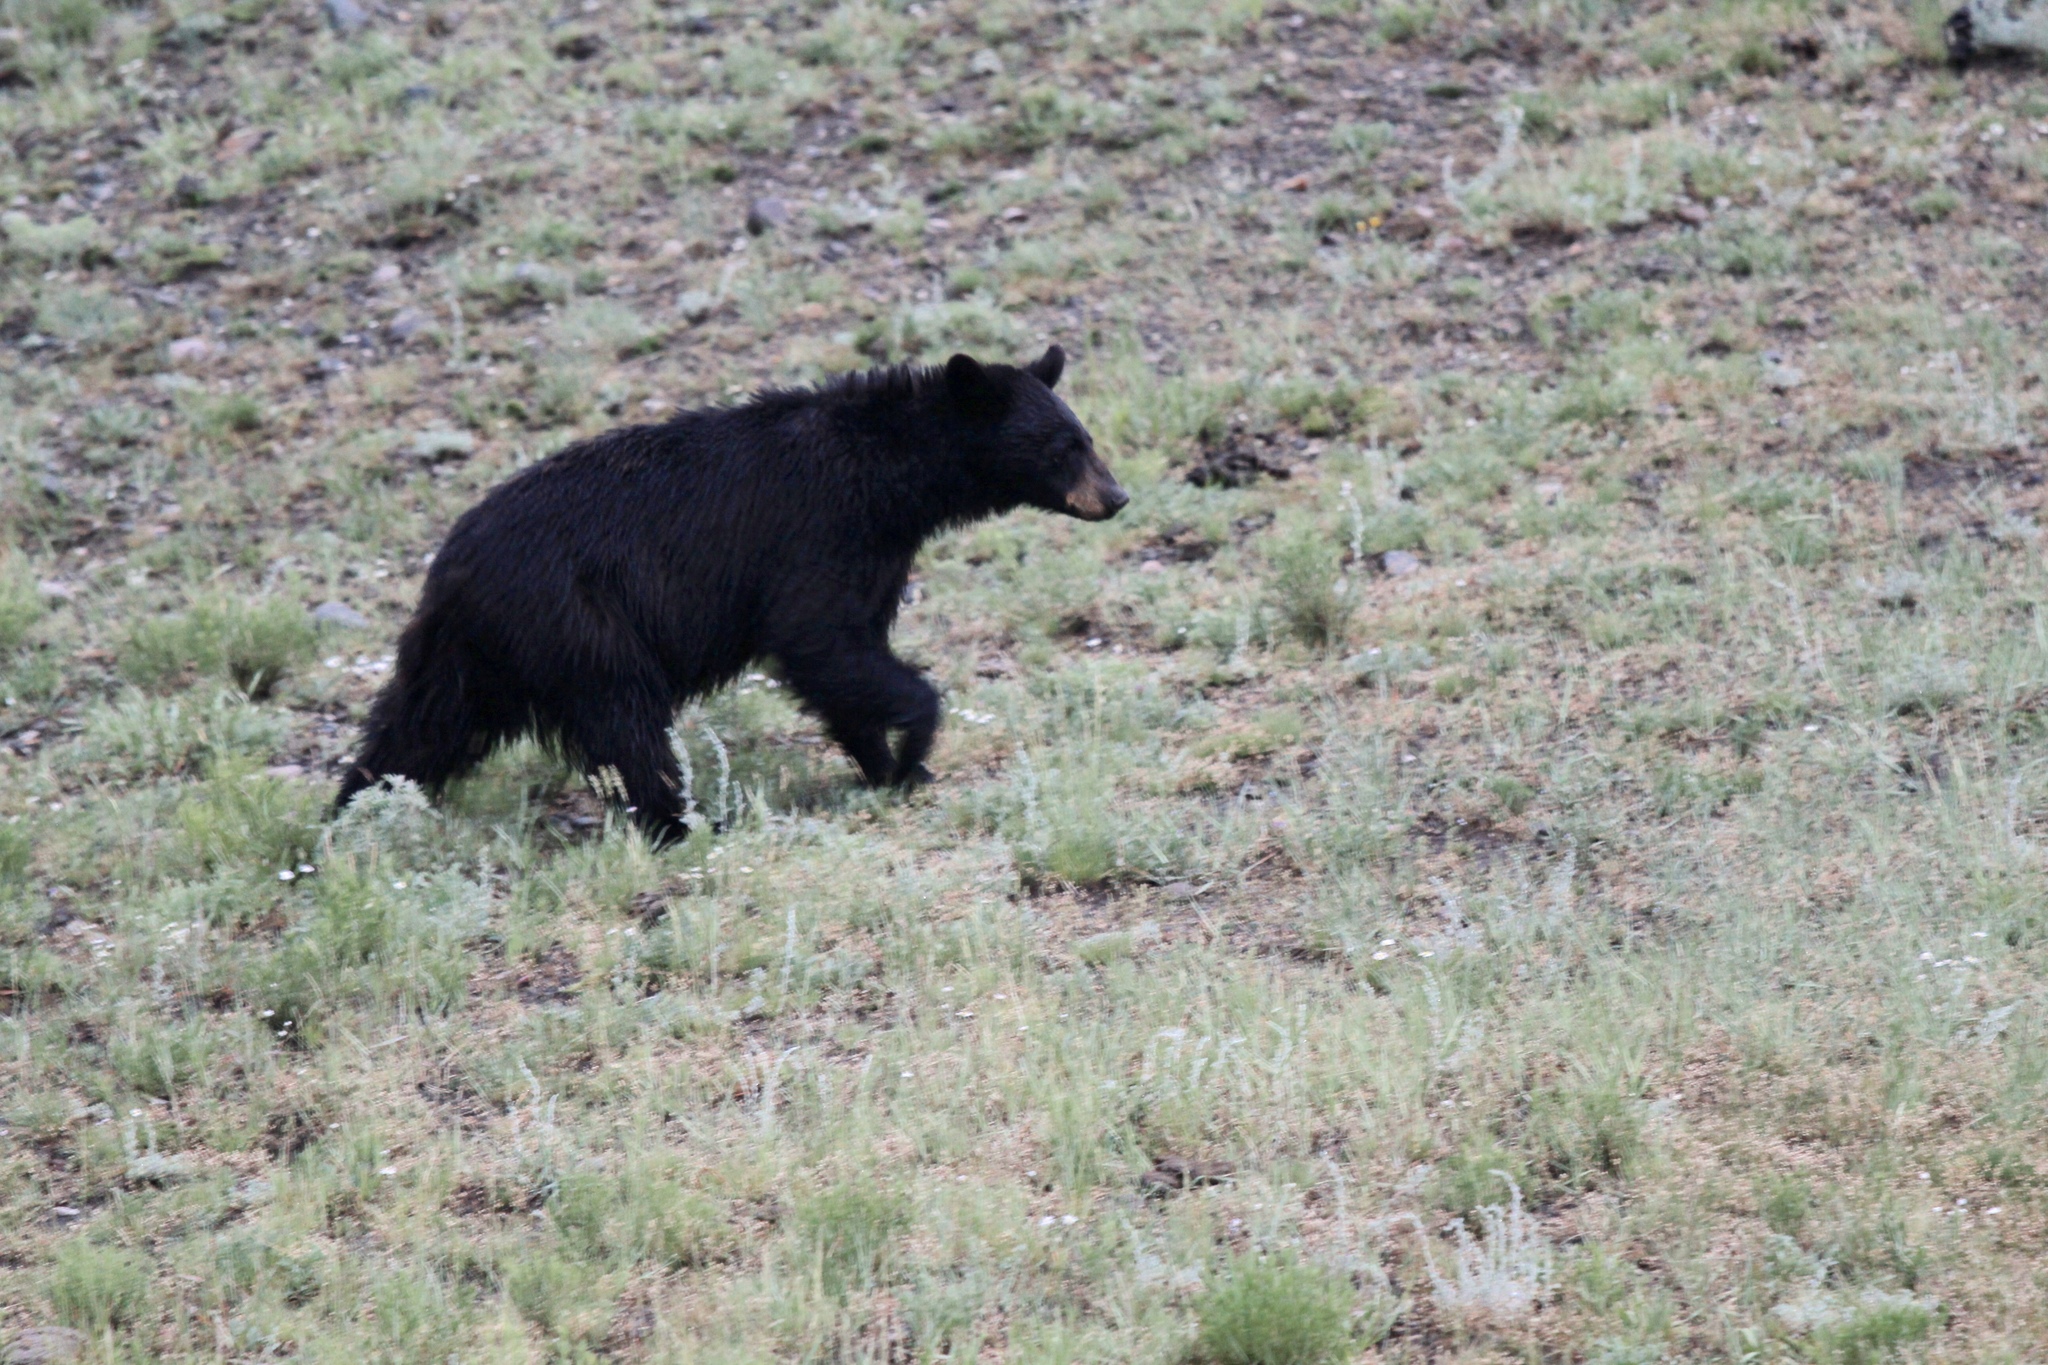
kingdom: Animalia
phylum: Chordata
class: Mammalia
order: Carnivora
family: Ursidae
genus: Ursus
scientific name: Ursus americanus
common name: American black bear
